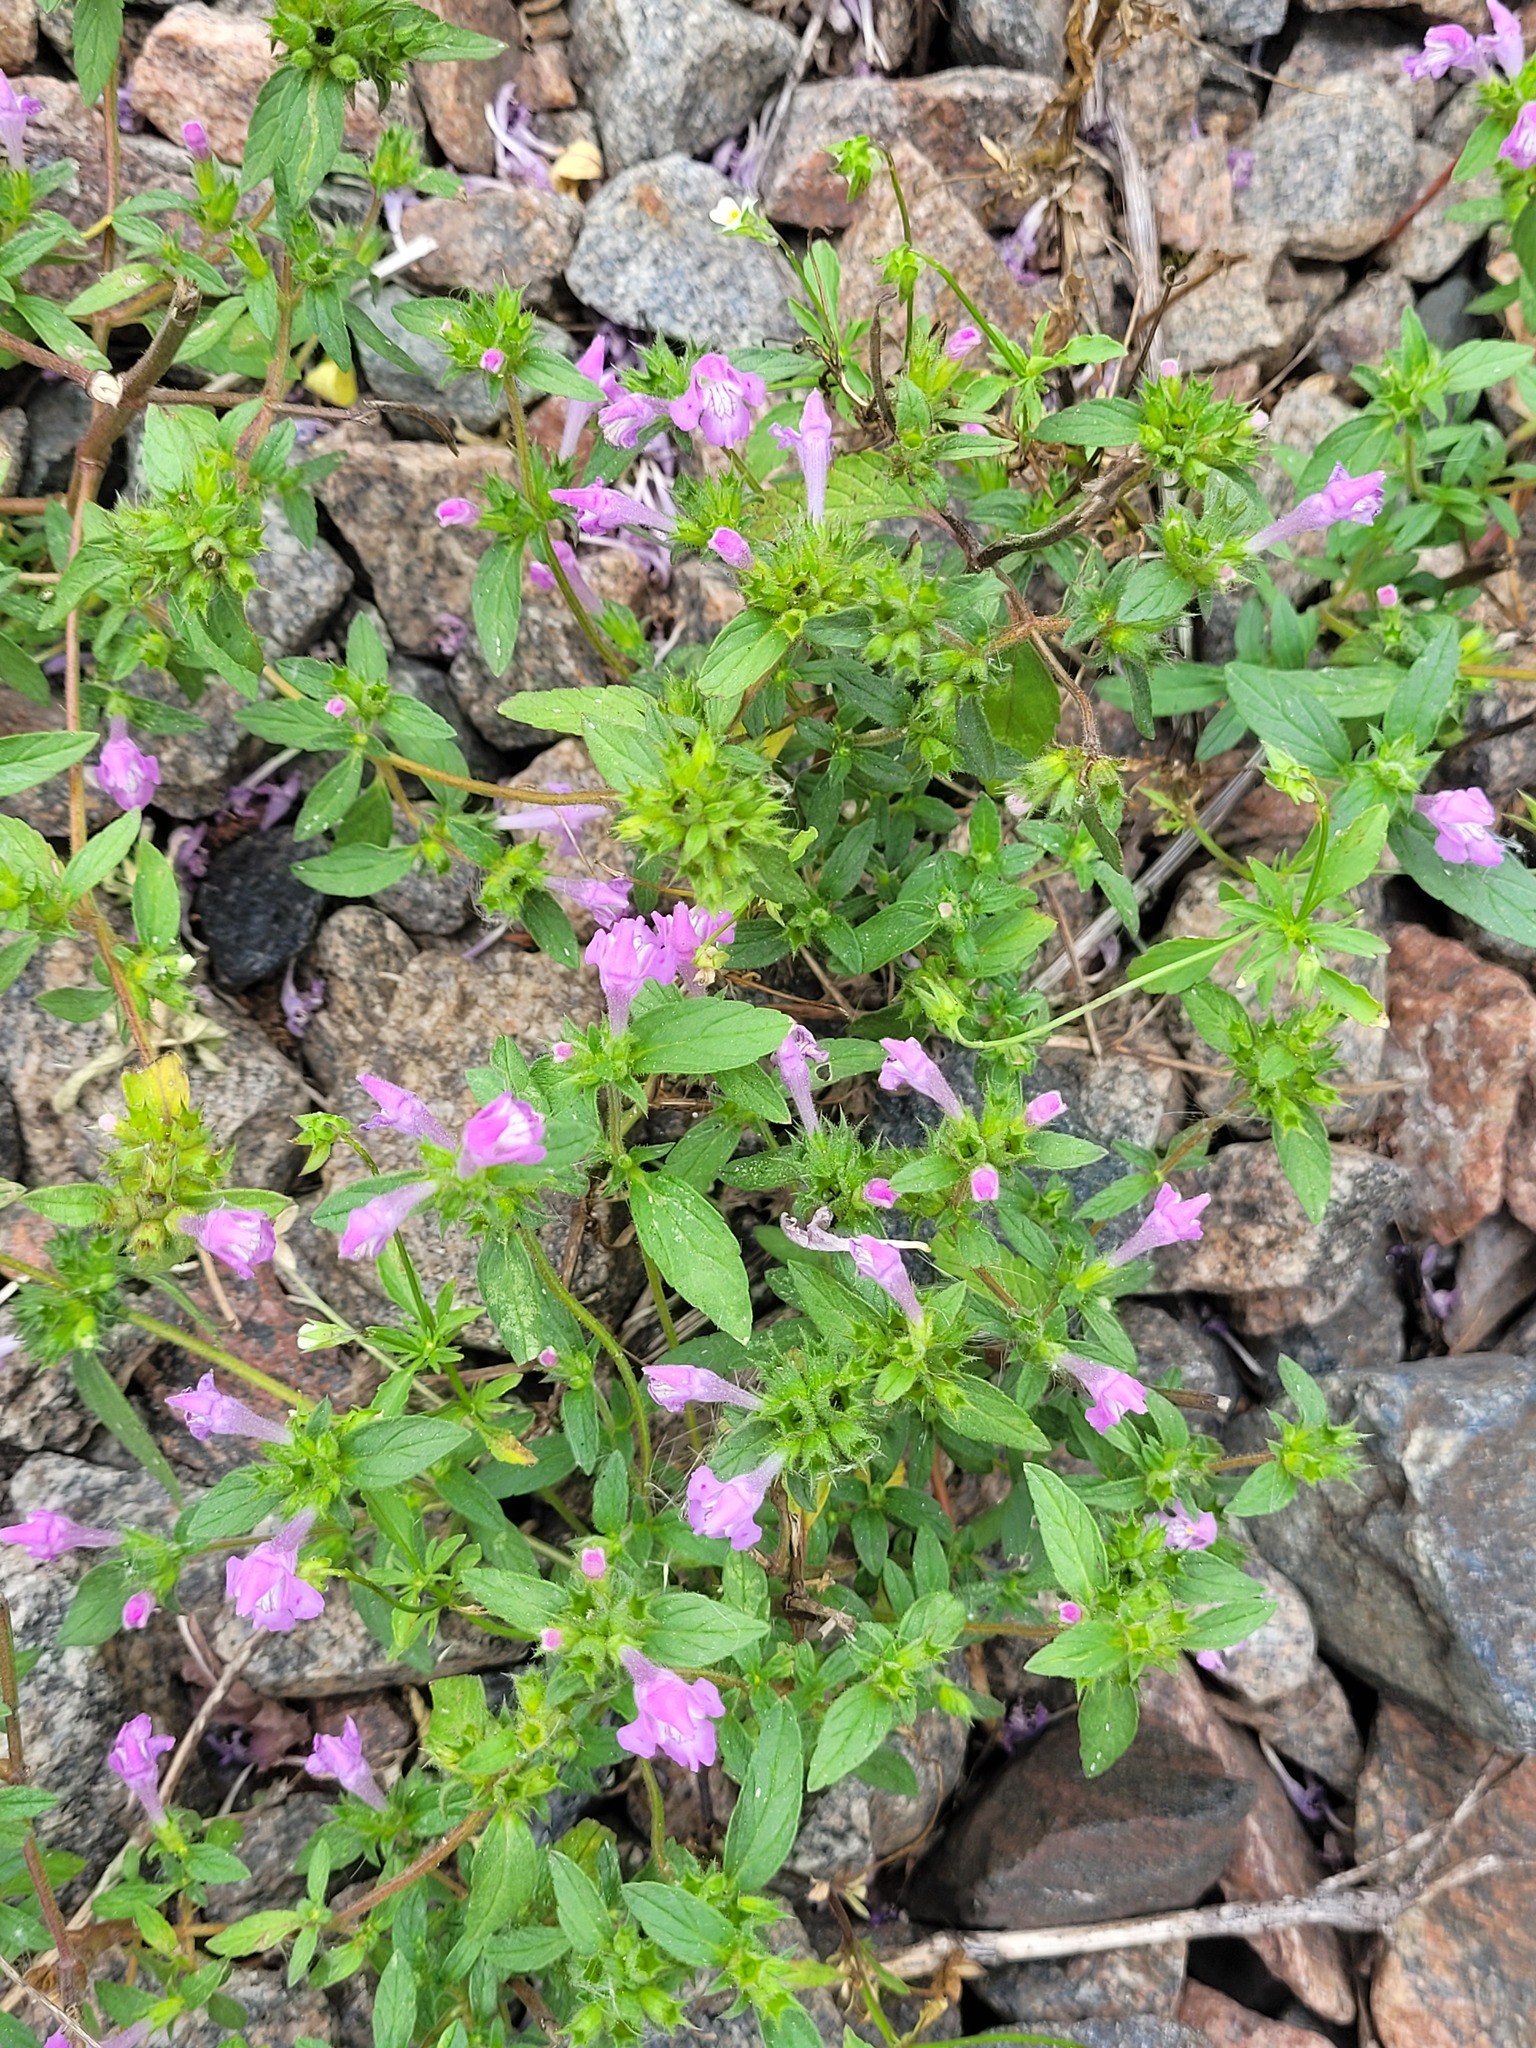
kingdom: Plantae
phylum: Tracheophyta
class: Magnoliopsida
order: Lamiales
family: Lamiaceae
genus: Galeopsis
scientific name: Galeopsis ladanum
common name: Broad-leaved hemp-nettle
